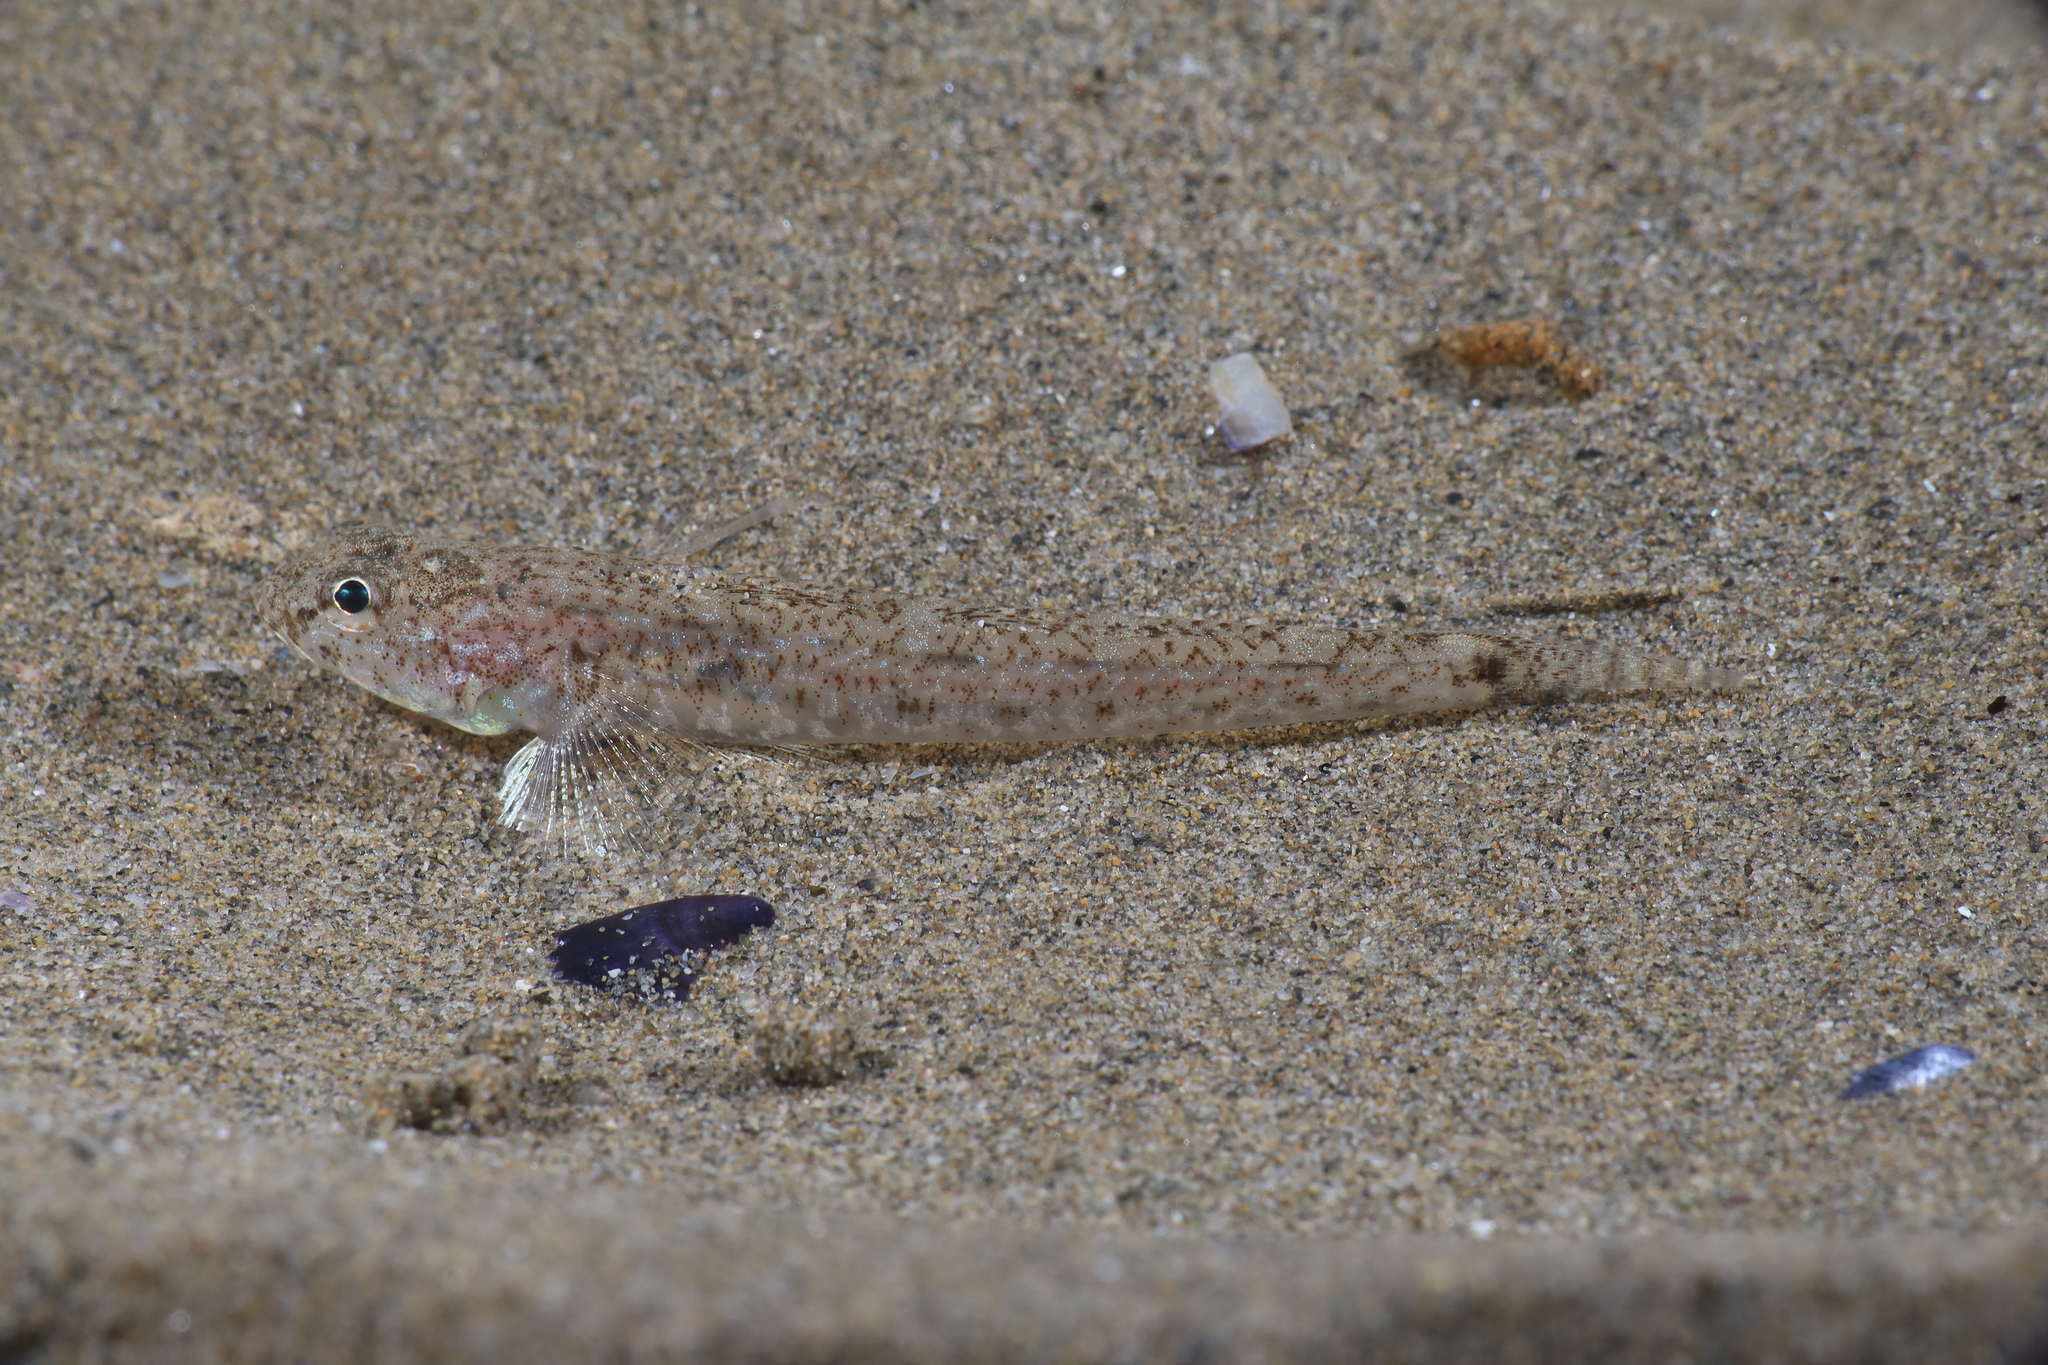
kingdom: Animalia
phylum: Chordata
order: Perciformes
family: Gobiidae
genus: Pomatoschistus
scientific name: Pomatoschistus marmoratus
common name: Marbled goby
